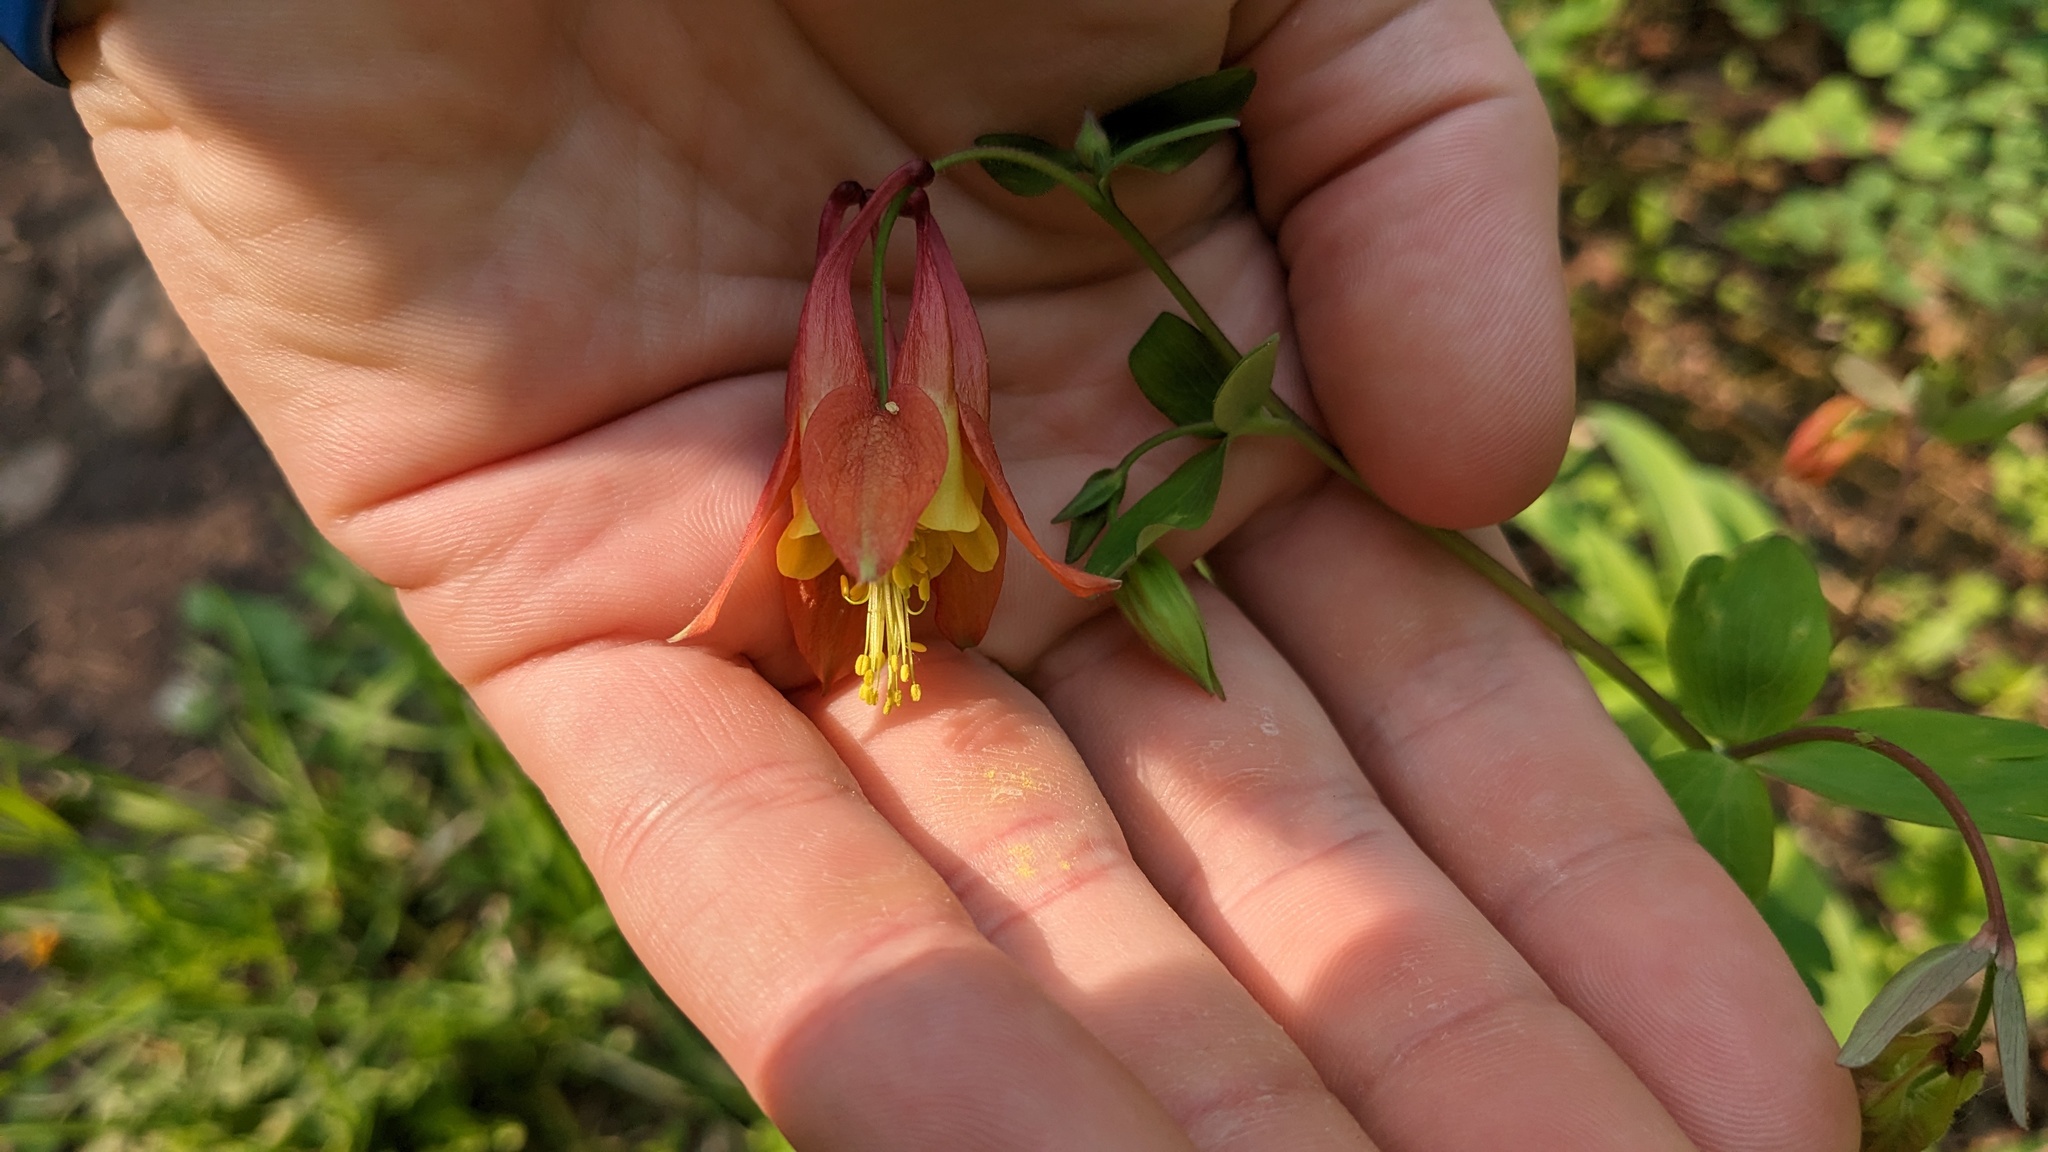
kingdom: Plantae
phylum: Tracheophyta
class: Magnoliopsida
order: Ranunculales
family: Ranunculaceae
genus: Aquilegia
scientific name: Aquilegia canadensis
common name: American columbine
